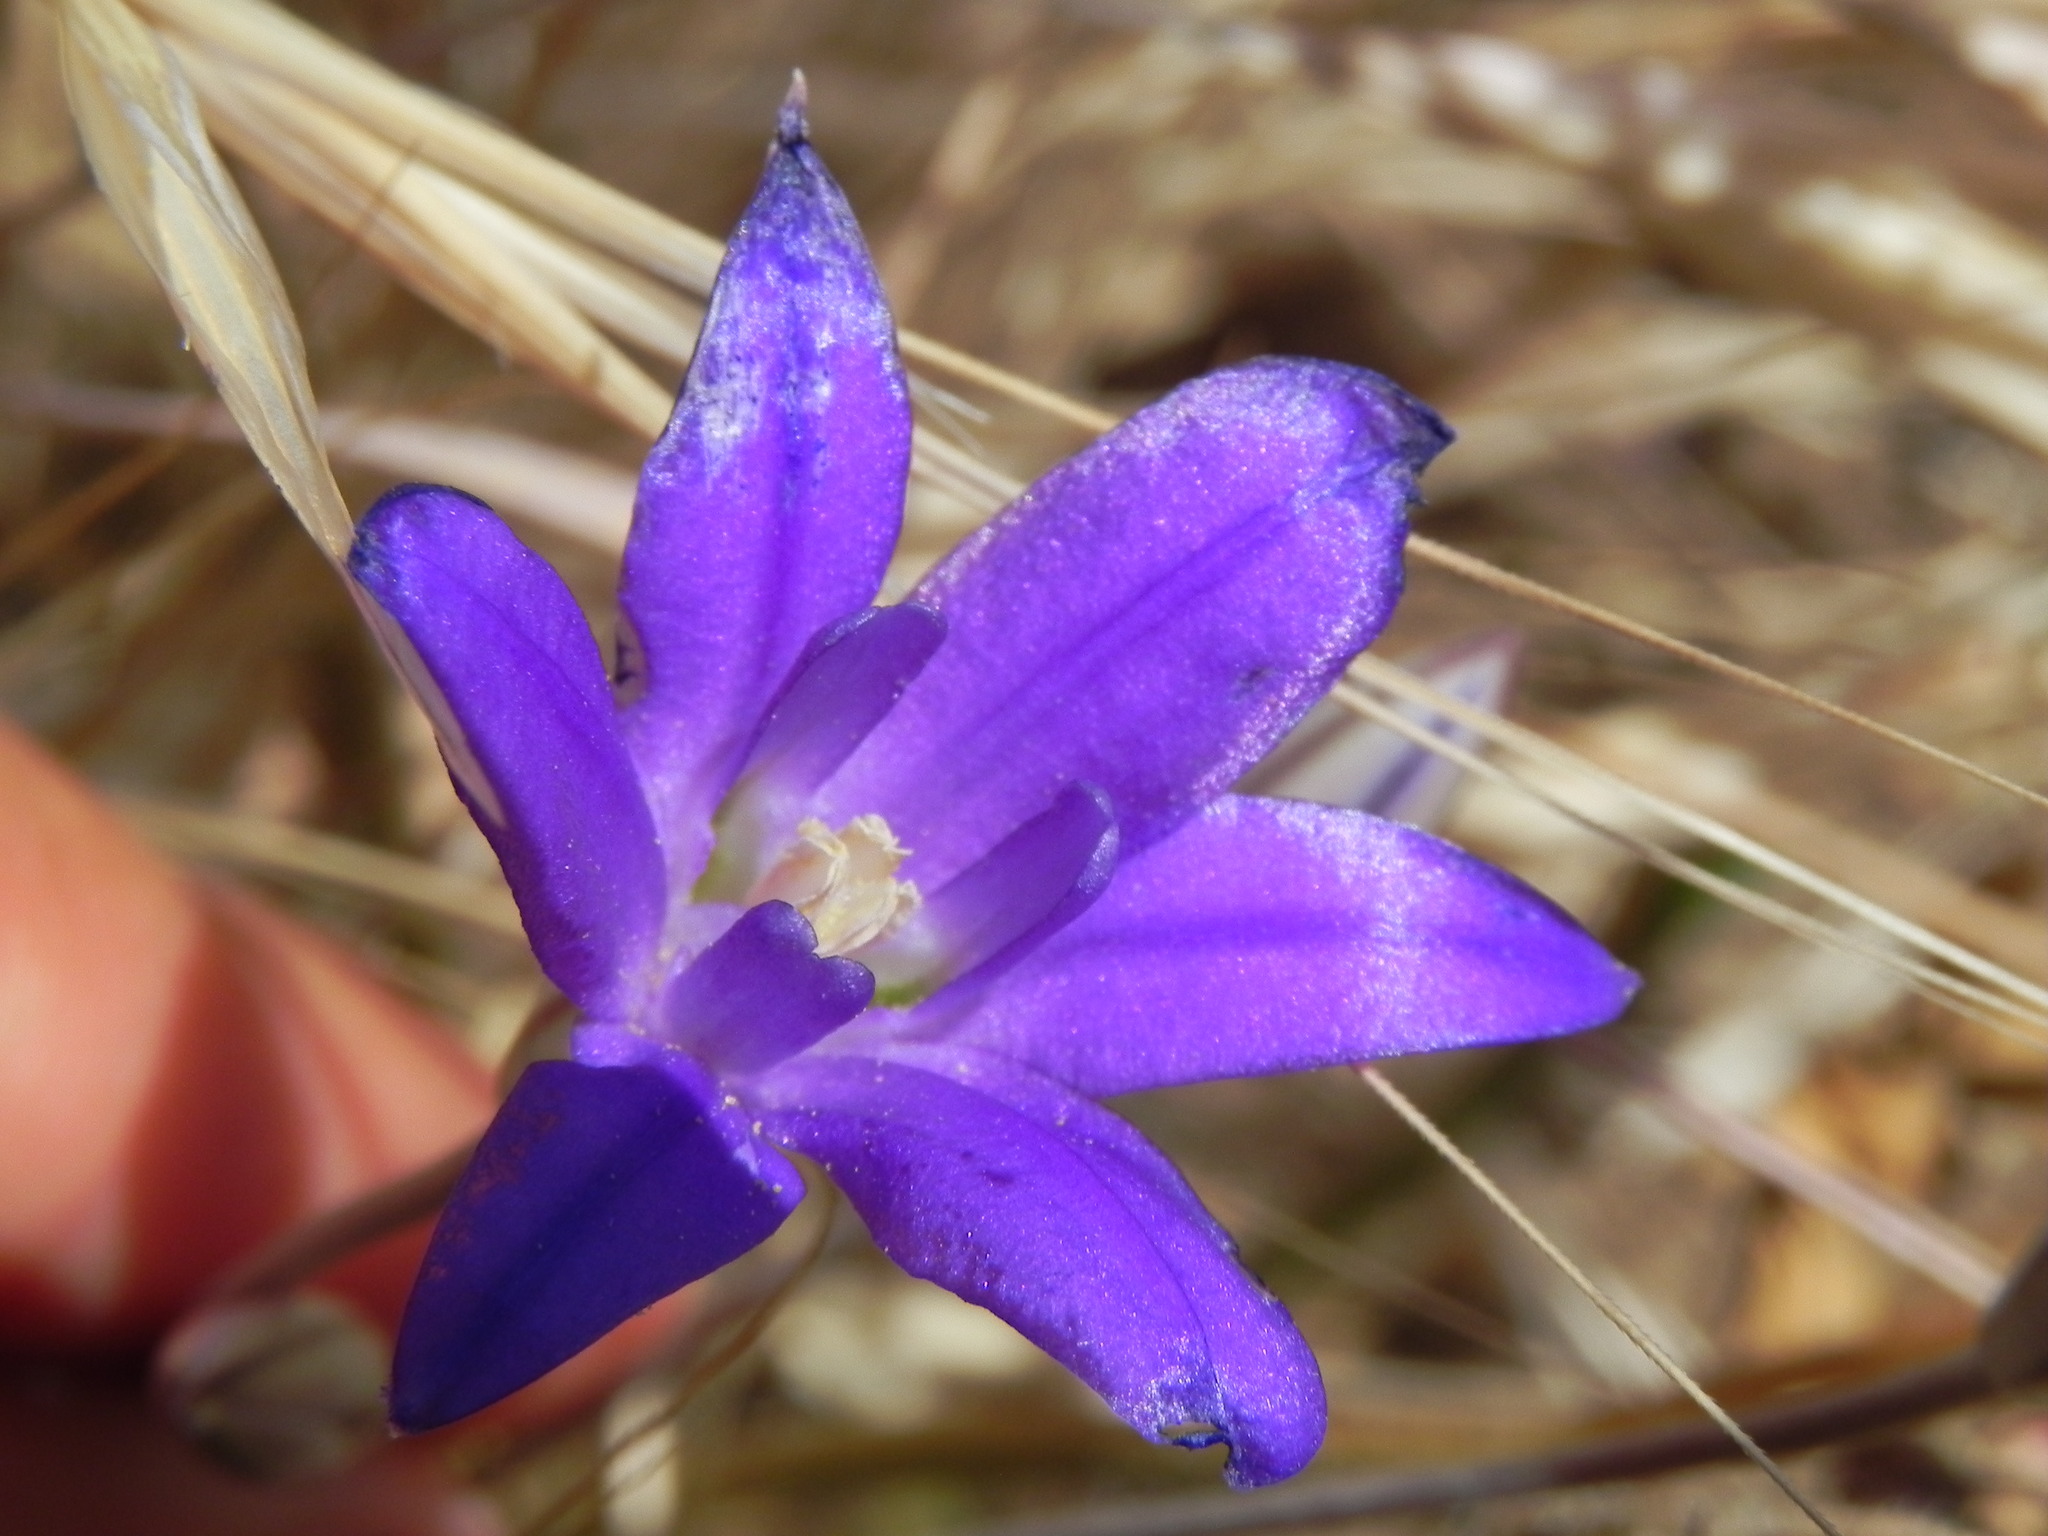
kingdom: Plantae
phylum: Tracheophyta
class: Liliopsida
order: Asparagales
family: Asparagaceae
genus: Brodiaea
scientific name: Brodiaea terrestris
